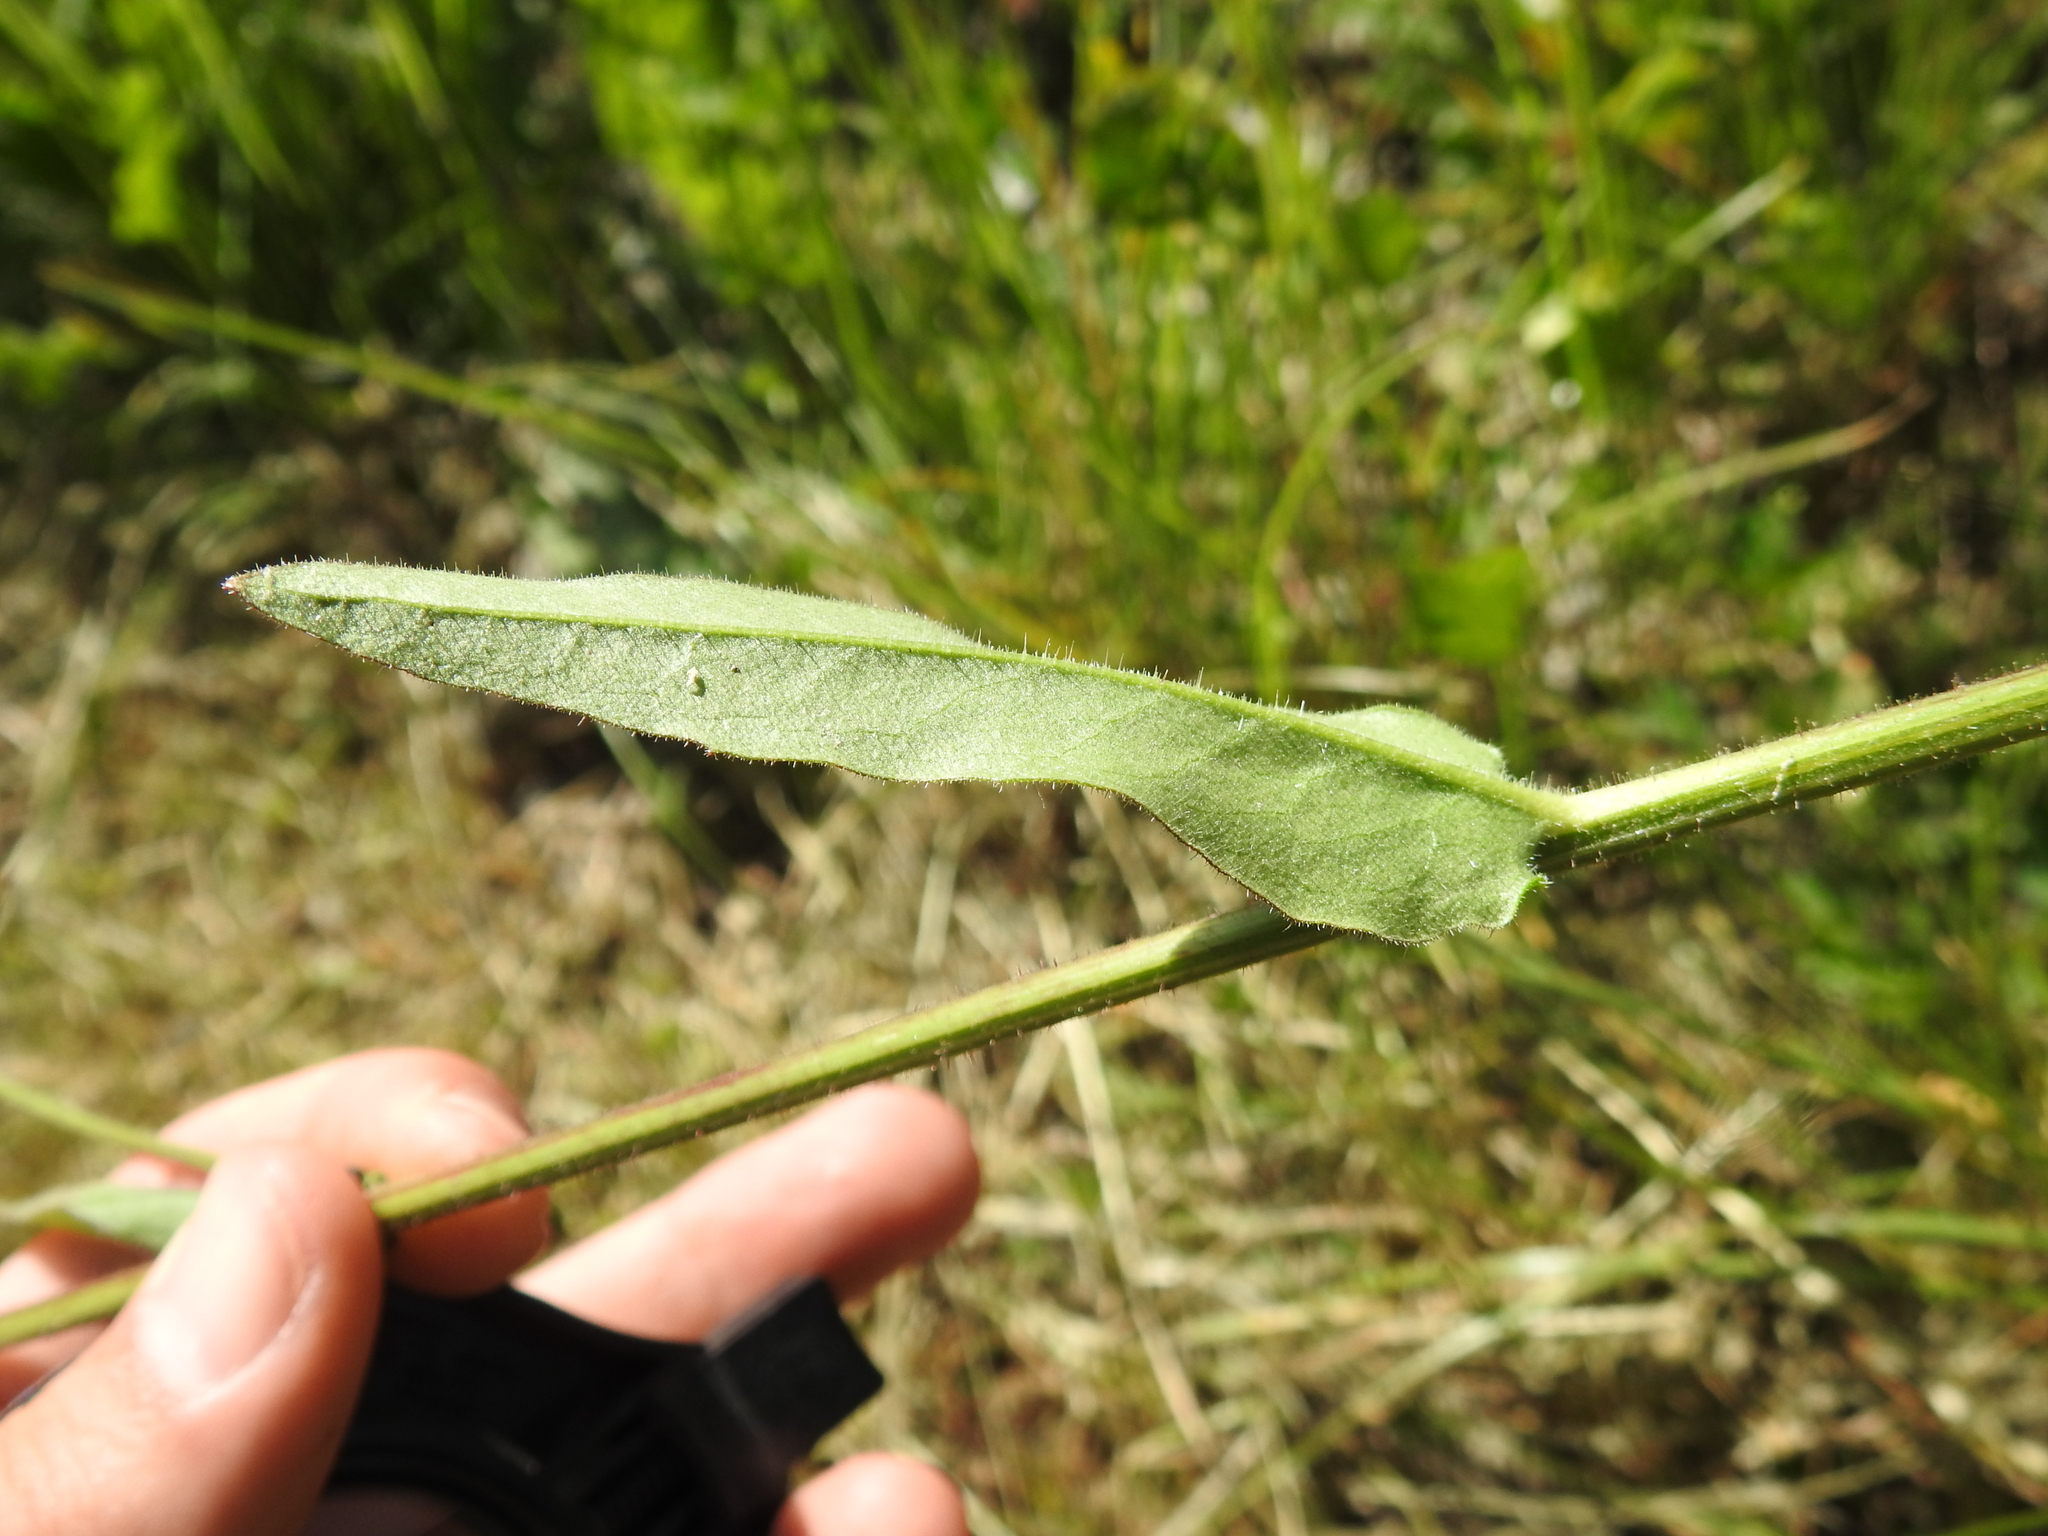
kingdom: Plantae
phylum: Tracheophyta
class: Magnoliopsida
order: Asterales
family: Asteraceae
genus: Picris
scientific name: Picris hieracioides
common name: Hawkweed oxtongue
